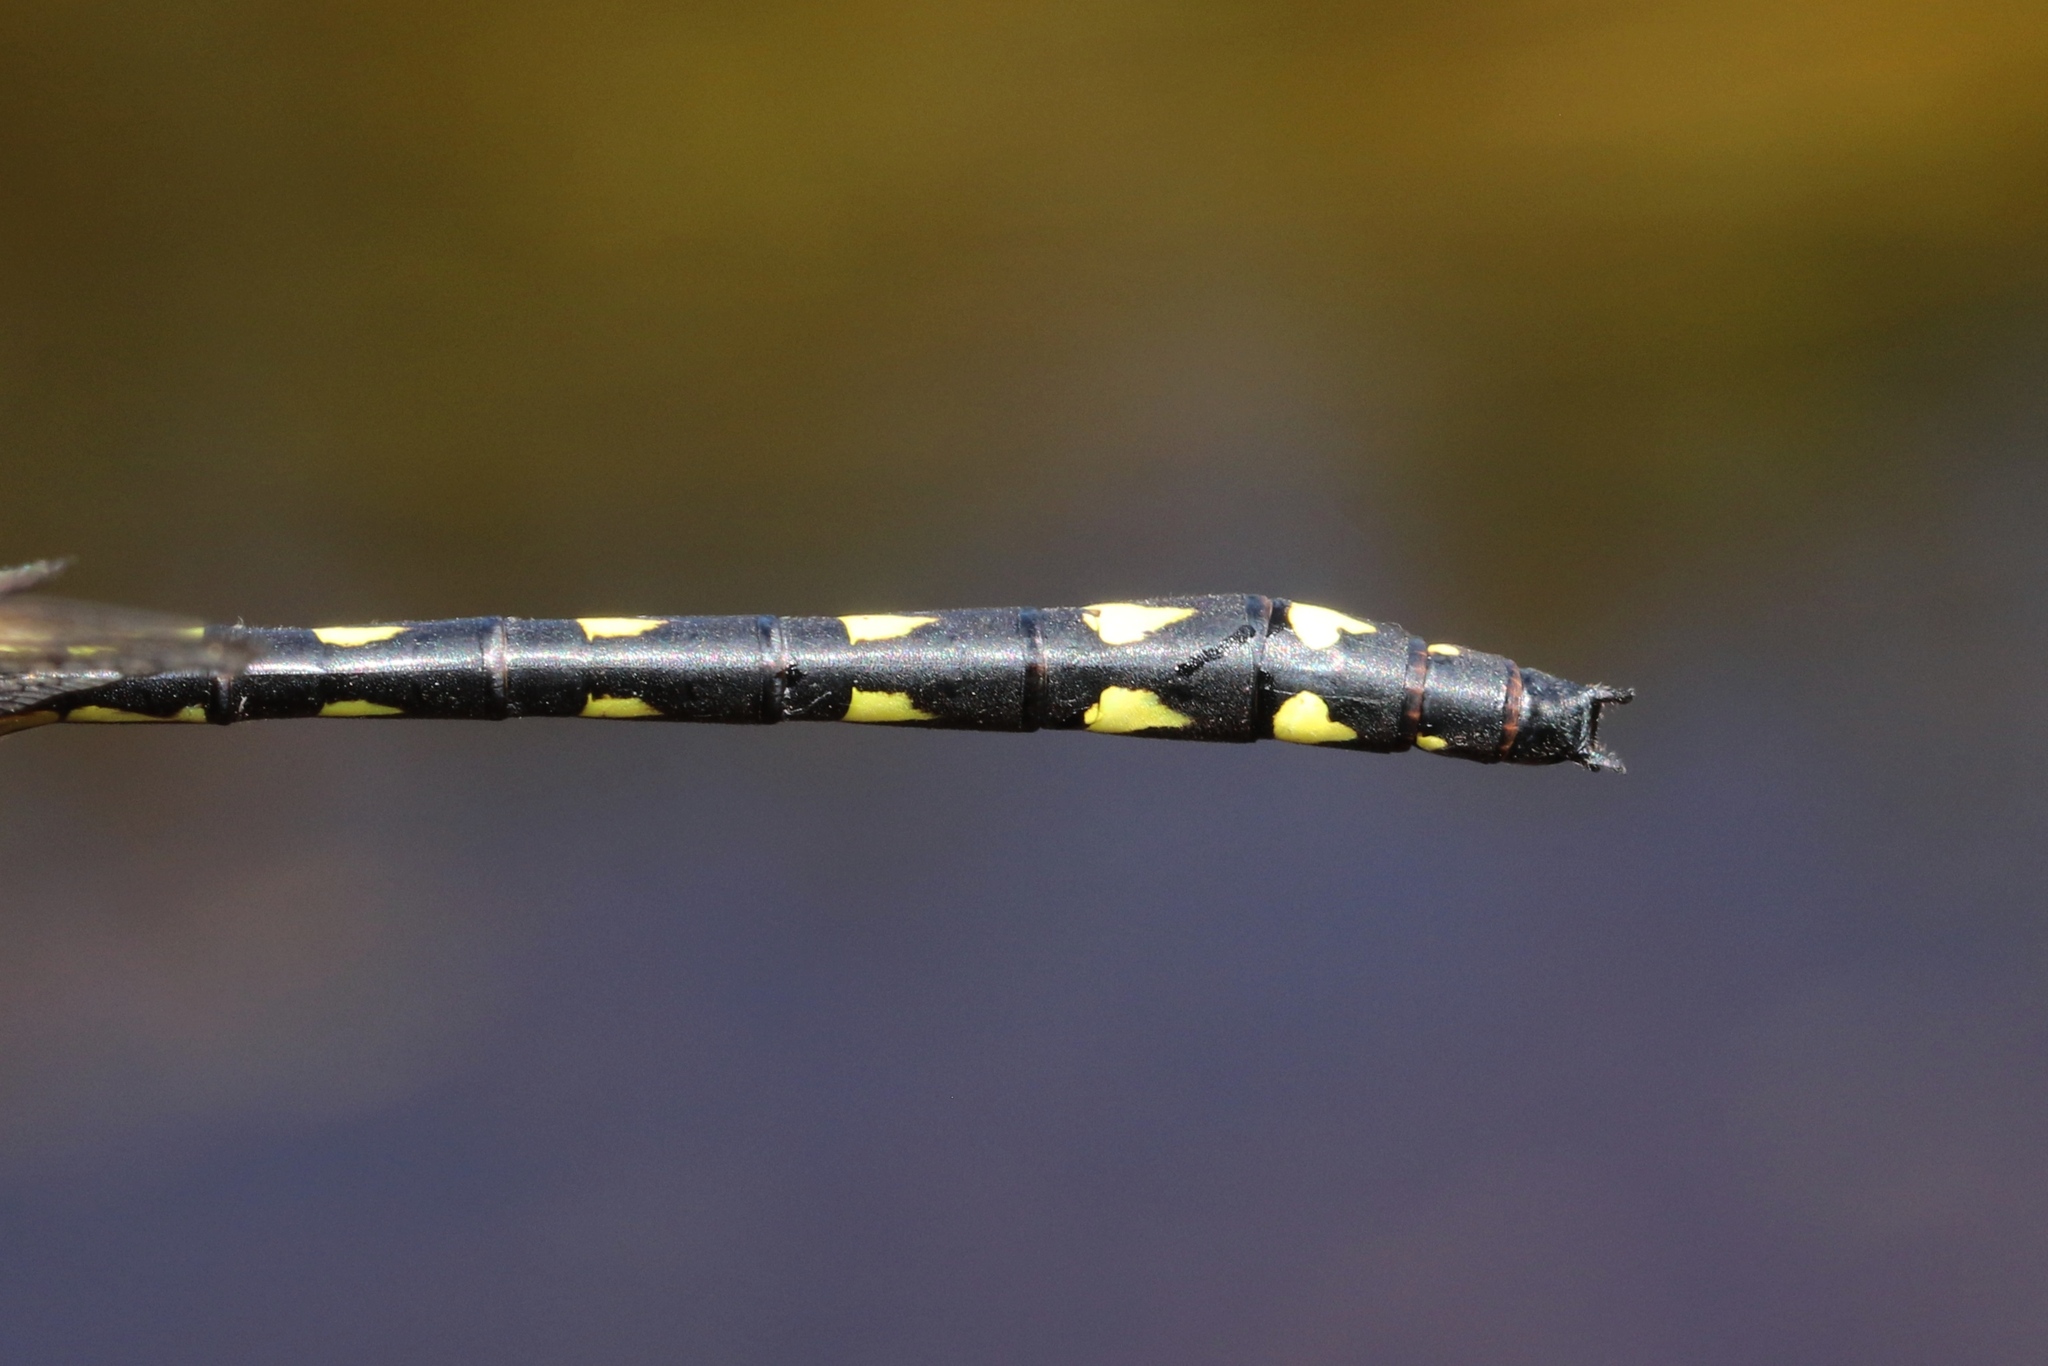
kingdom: Animalia
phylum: Arthropoda
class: Insecta
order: Odonata
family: Cordulegastridae
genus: Cordulegaster
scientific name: Cordulegaster diastatops
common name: Delta-spotted spiketail
